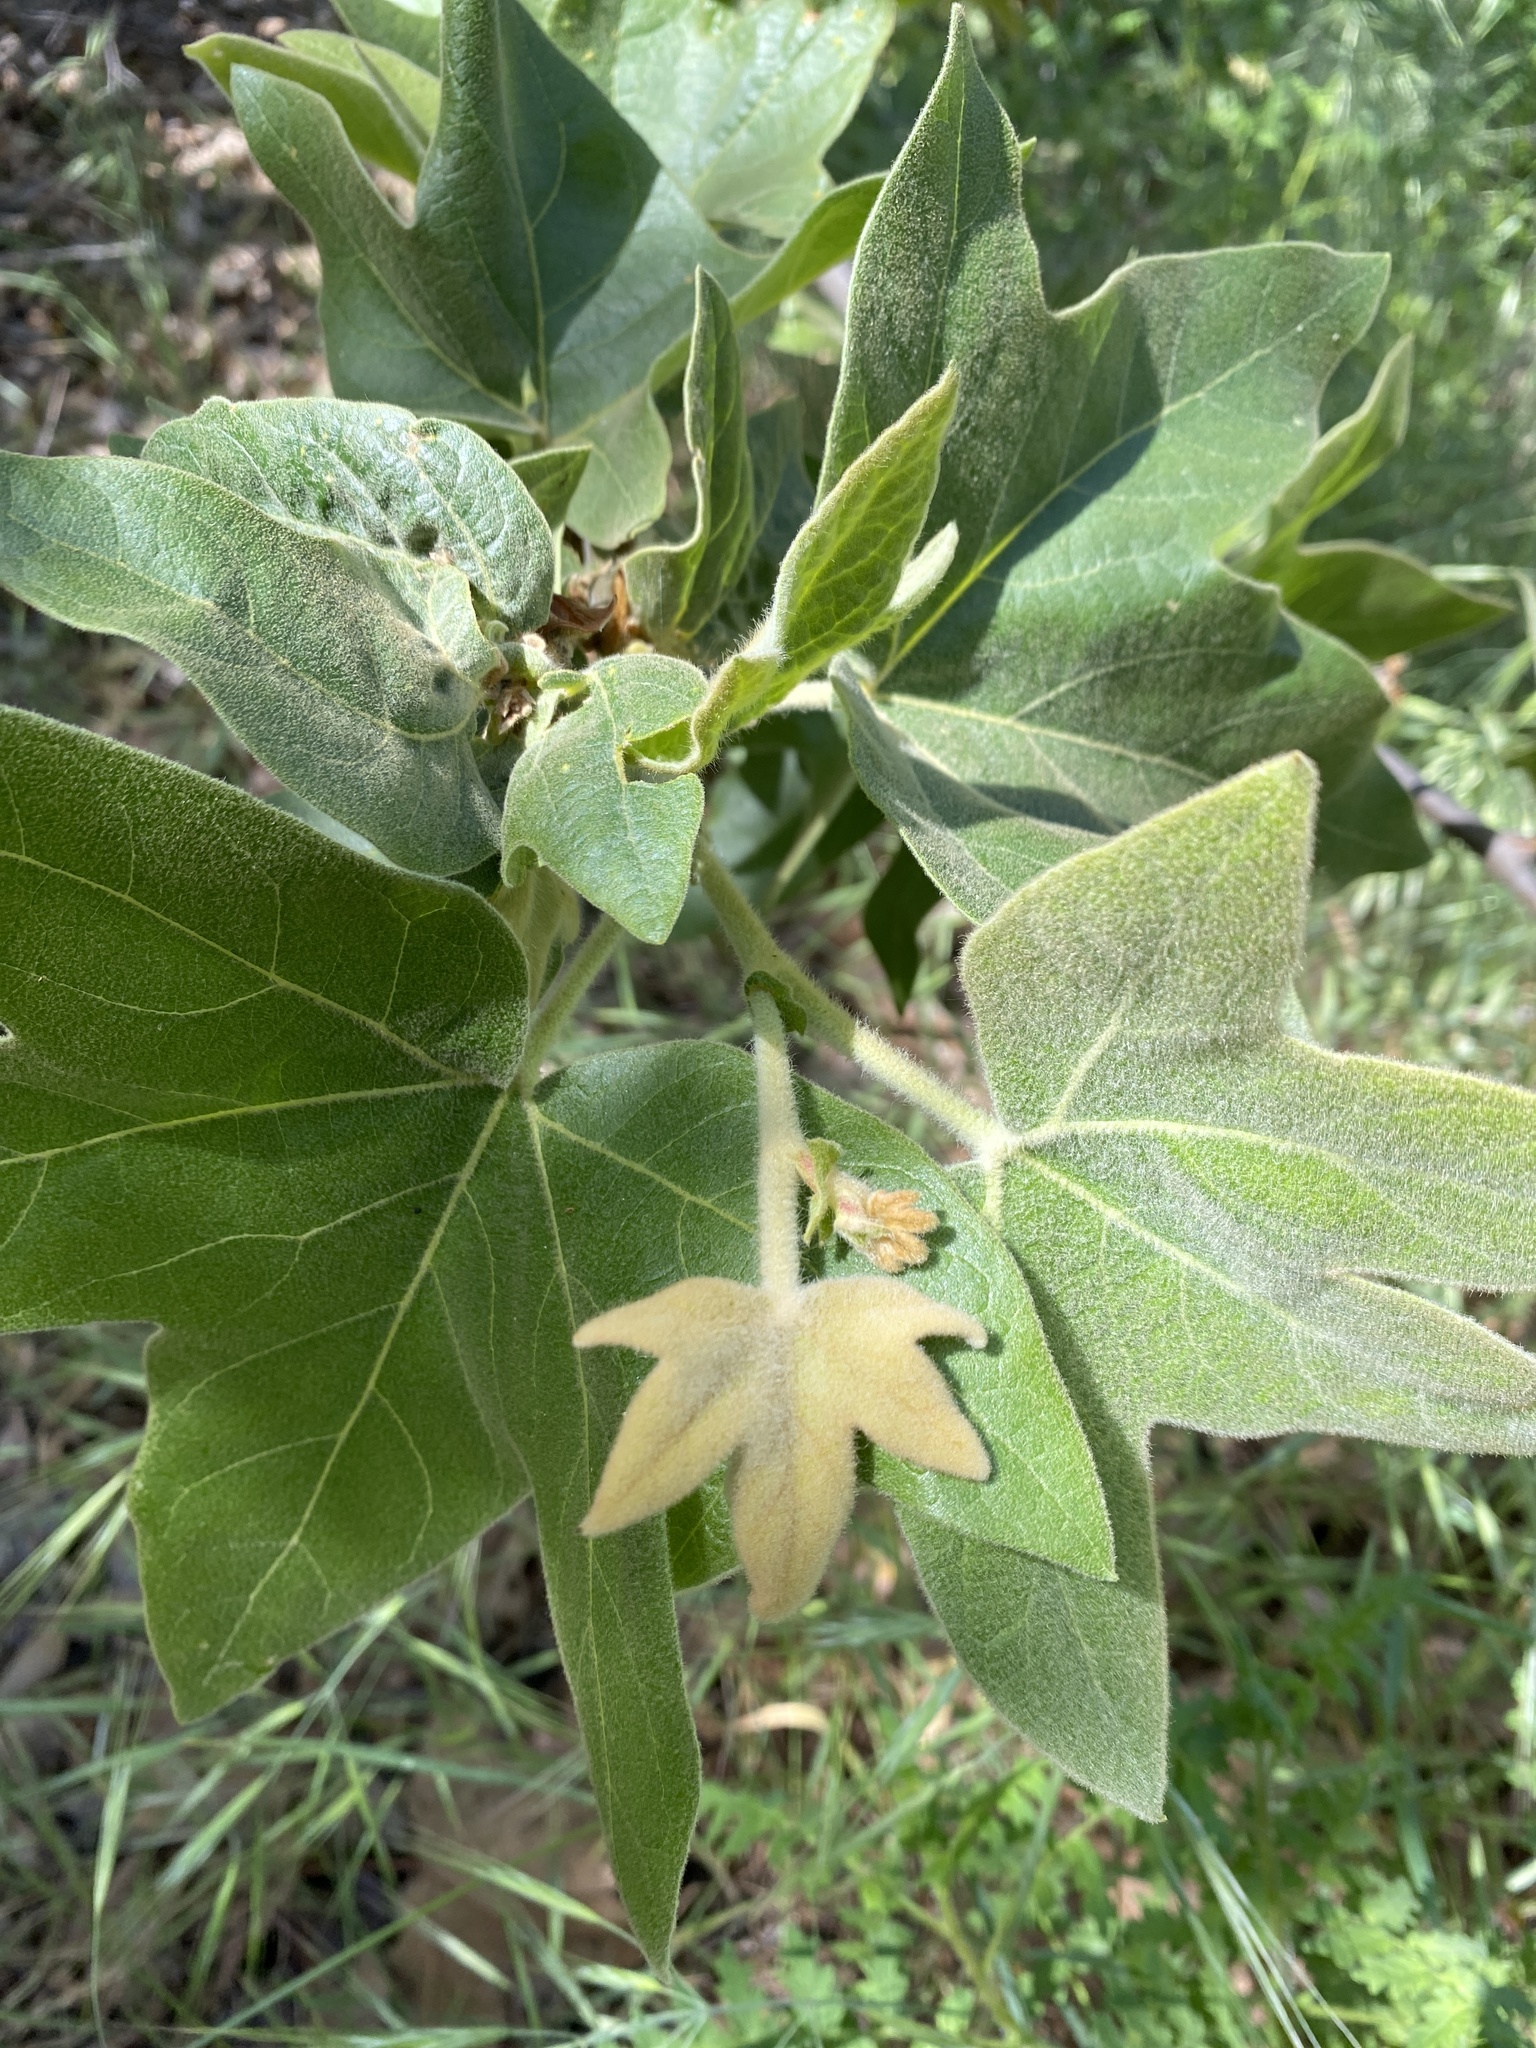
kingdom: Plantae
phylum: Tracheophyta
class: Magnoliopsida
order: Proteales
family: Platanaceae
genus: Platanus
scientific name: Platanus racemosa
